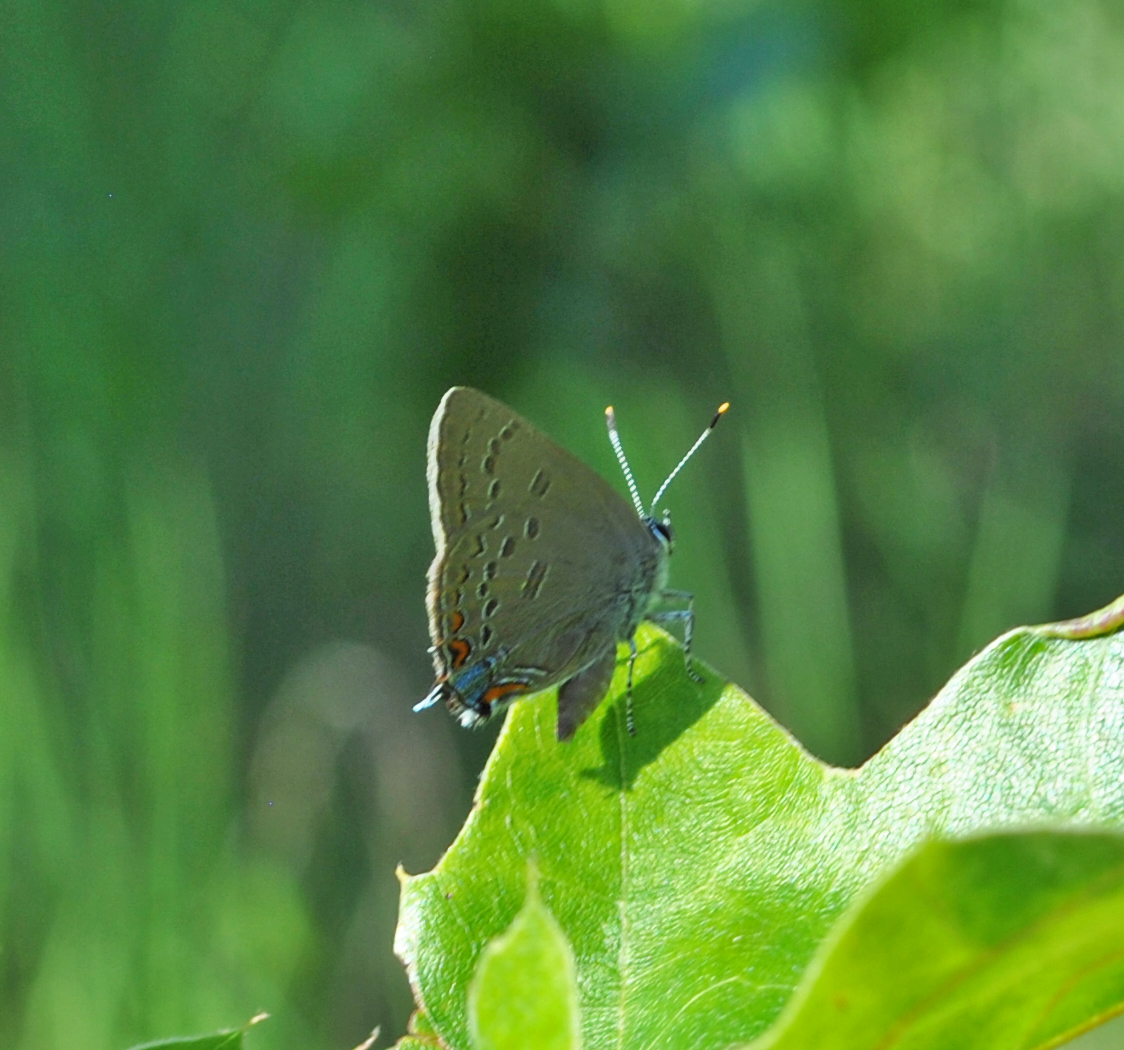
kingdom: Animalia
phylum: Arthropoda
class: Insecta
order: Lepidoptera
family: Lycaenidae
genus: Satyrium
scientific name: Satyrium edwardsii
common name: Edwards' hairstreak
